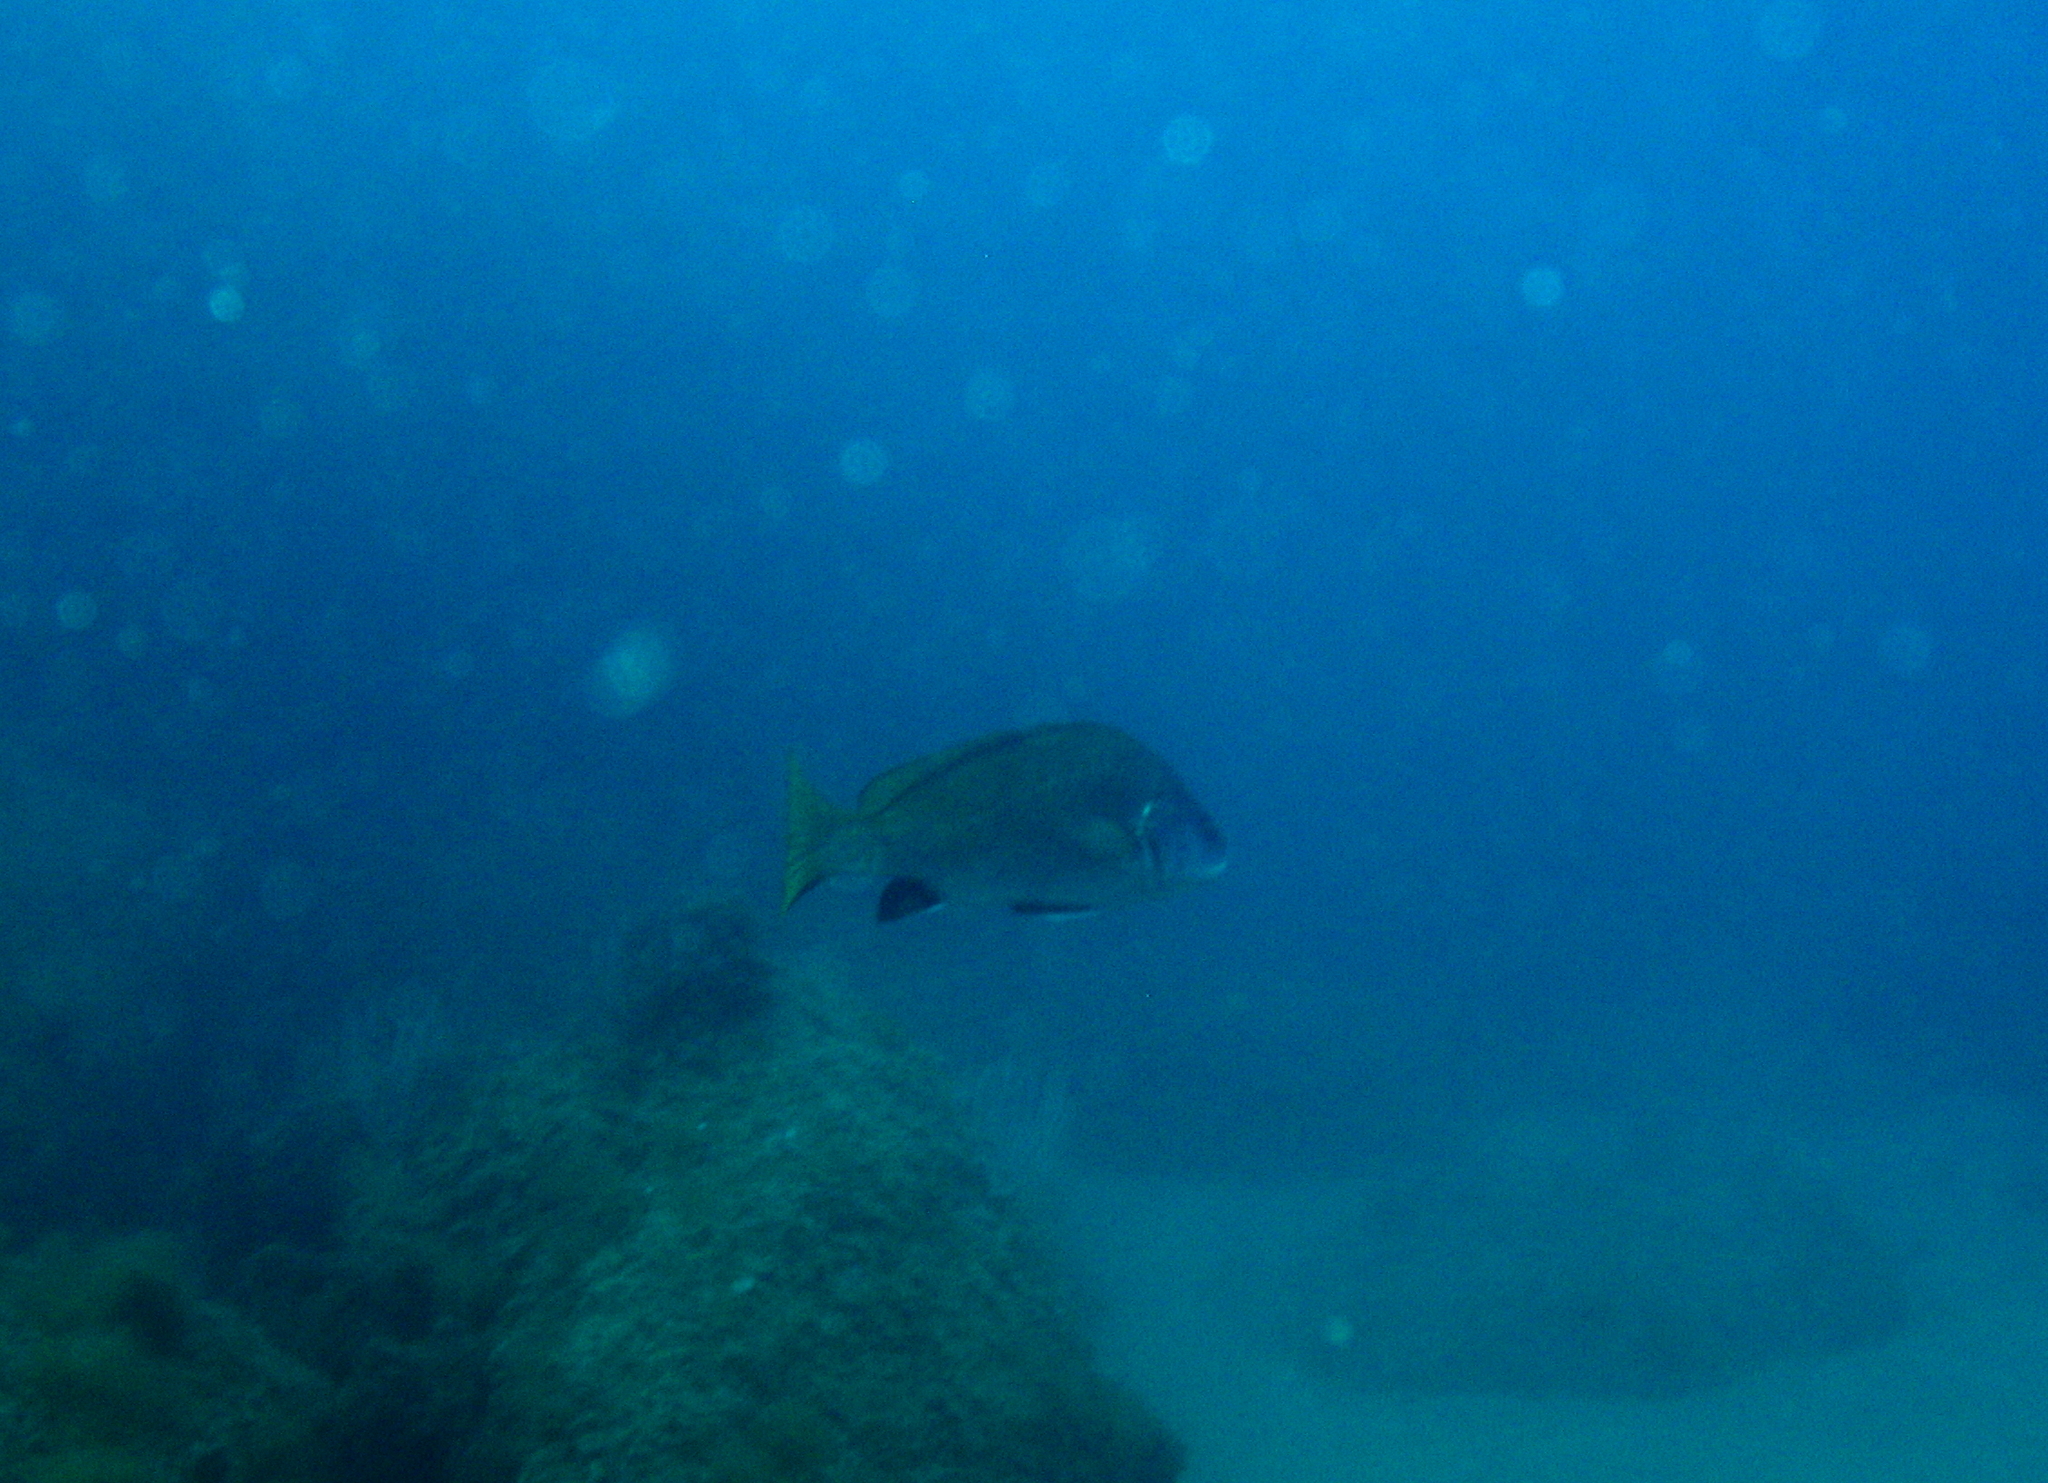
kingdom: Animalia
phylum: Chordata
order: Perciformes
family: Sciaenidae
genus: Sciaena
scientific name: Sciaena umbra
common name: Brown meagre
